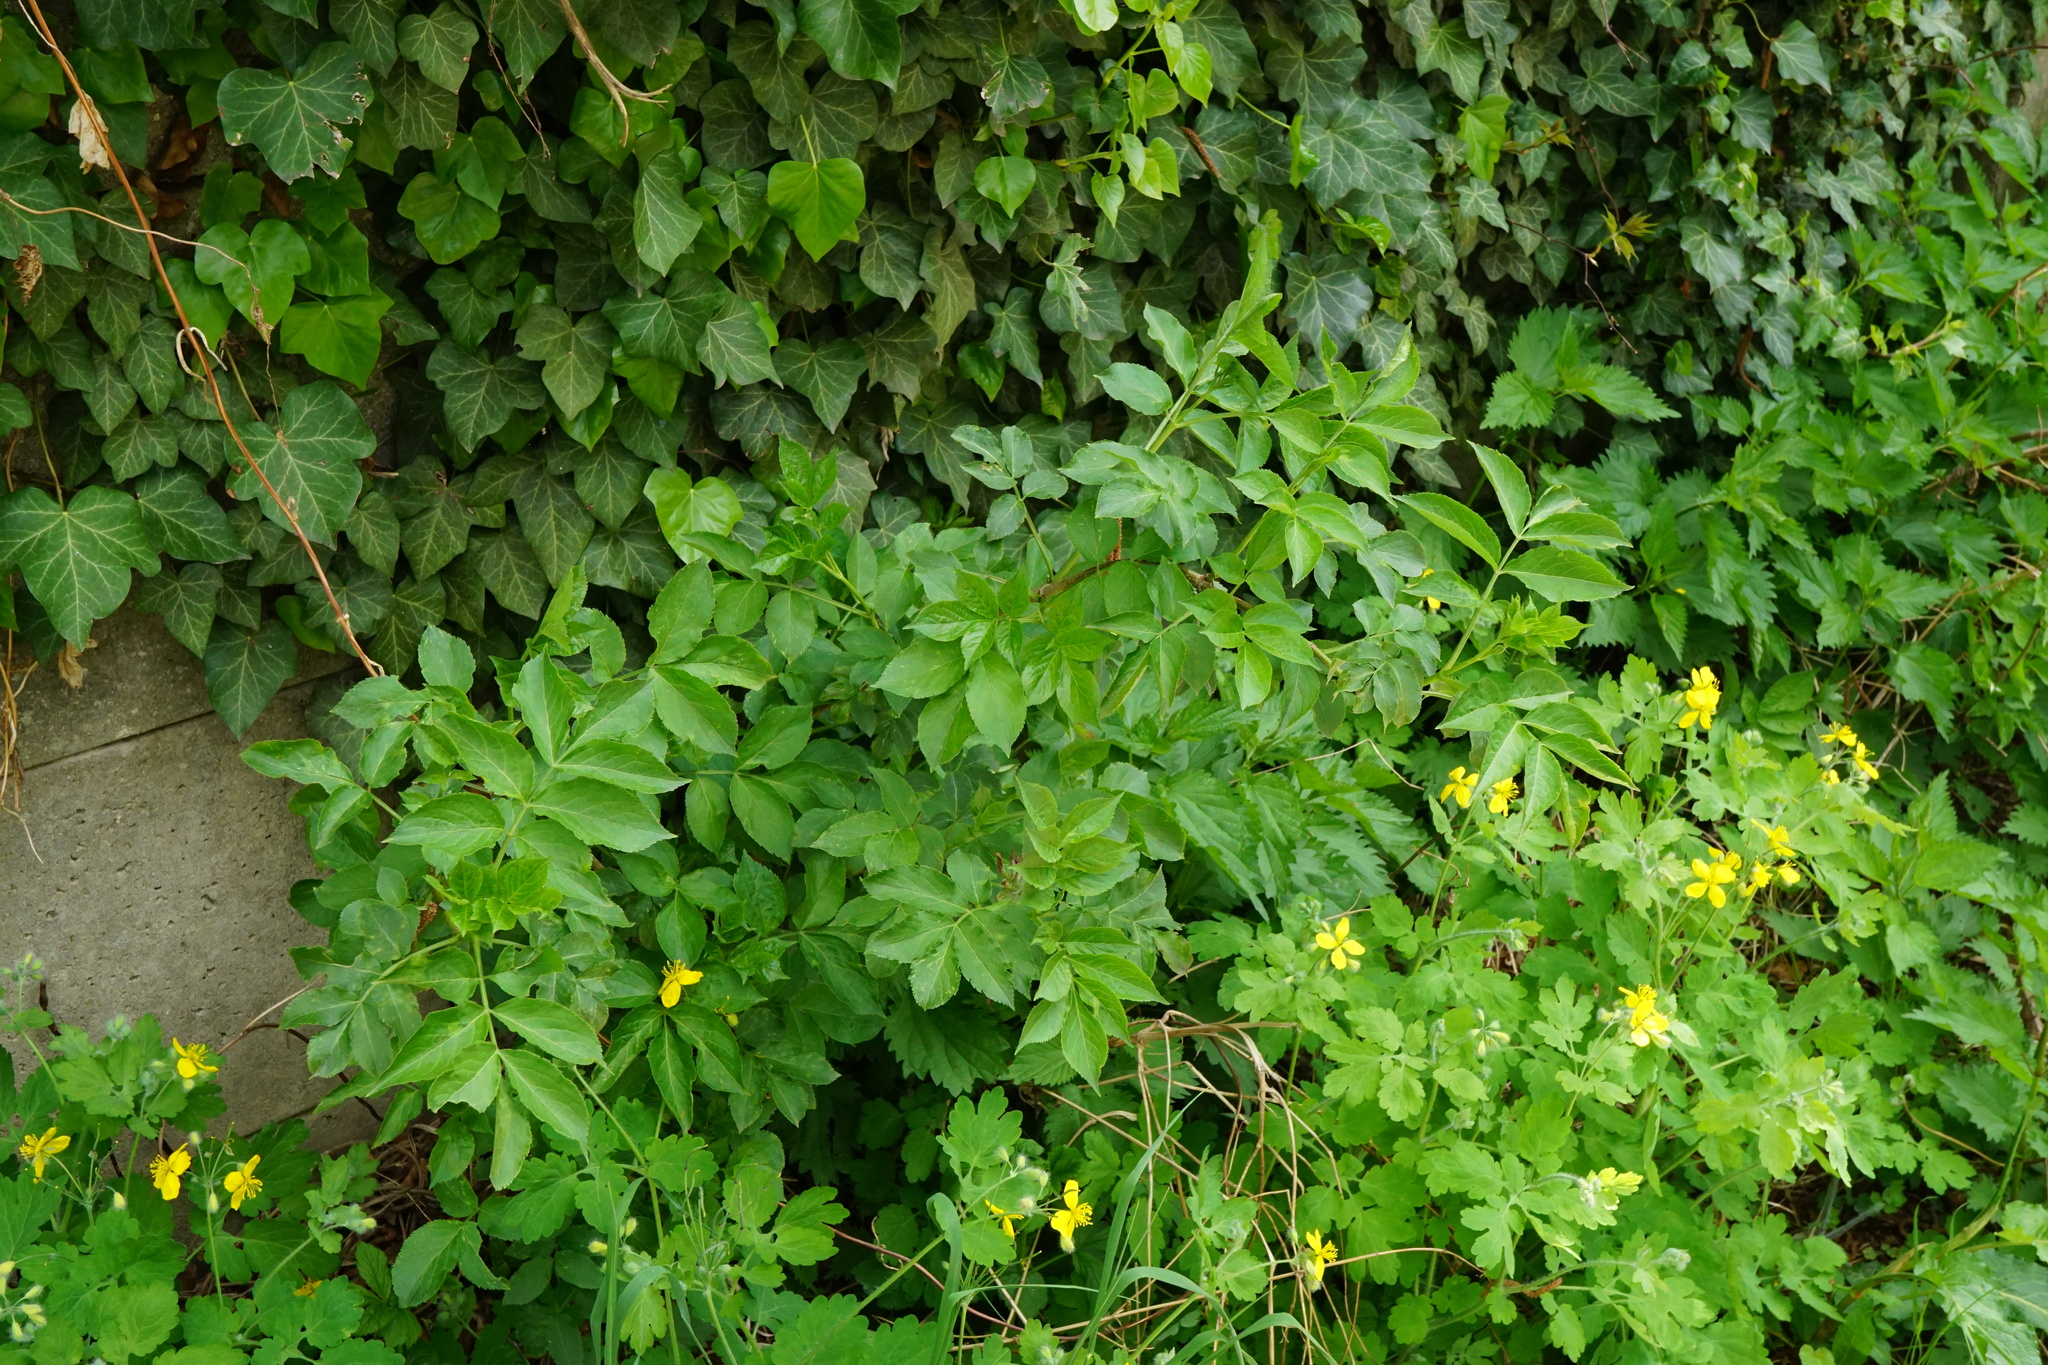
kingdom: Plantae
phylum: Tracheophyta
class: Magnoliopsida
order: Dipsacales
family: Viburnaceae
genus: Sambucus
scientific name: Sambucus nigra
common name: Elder
